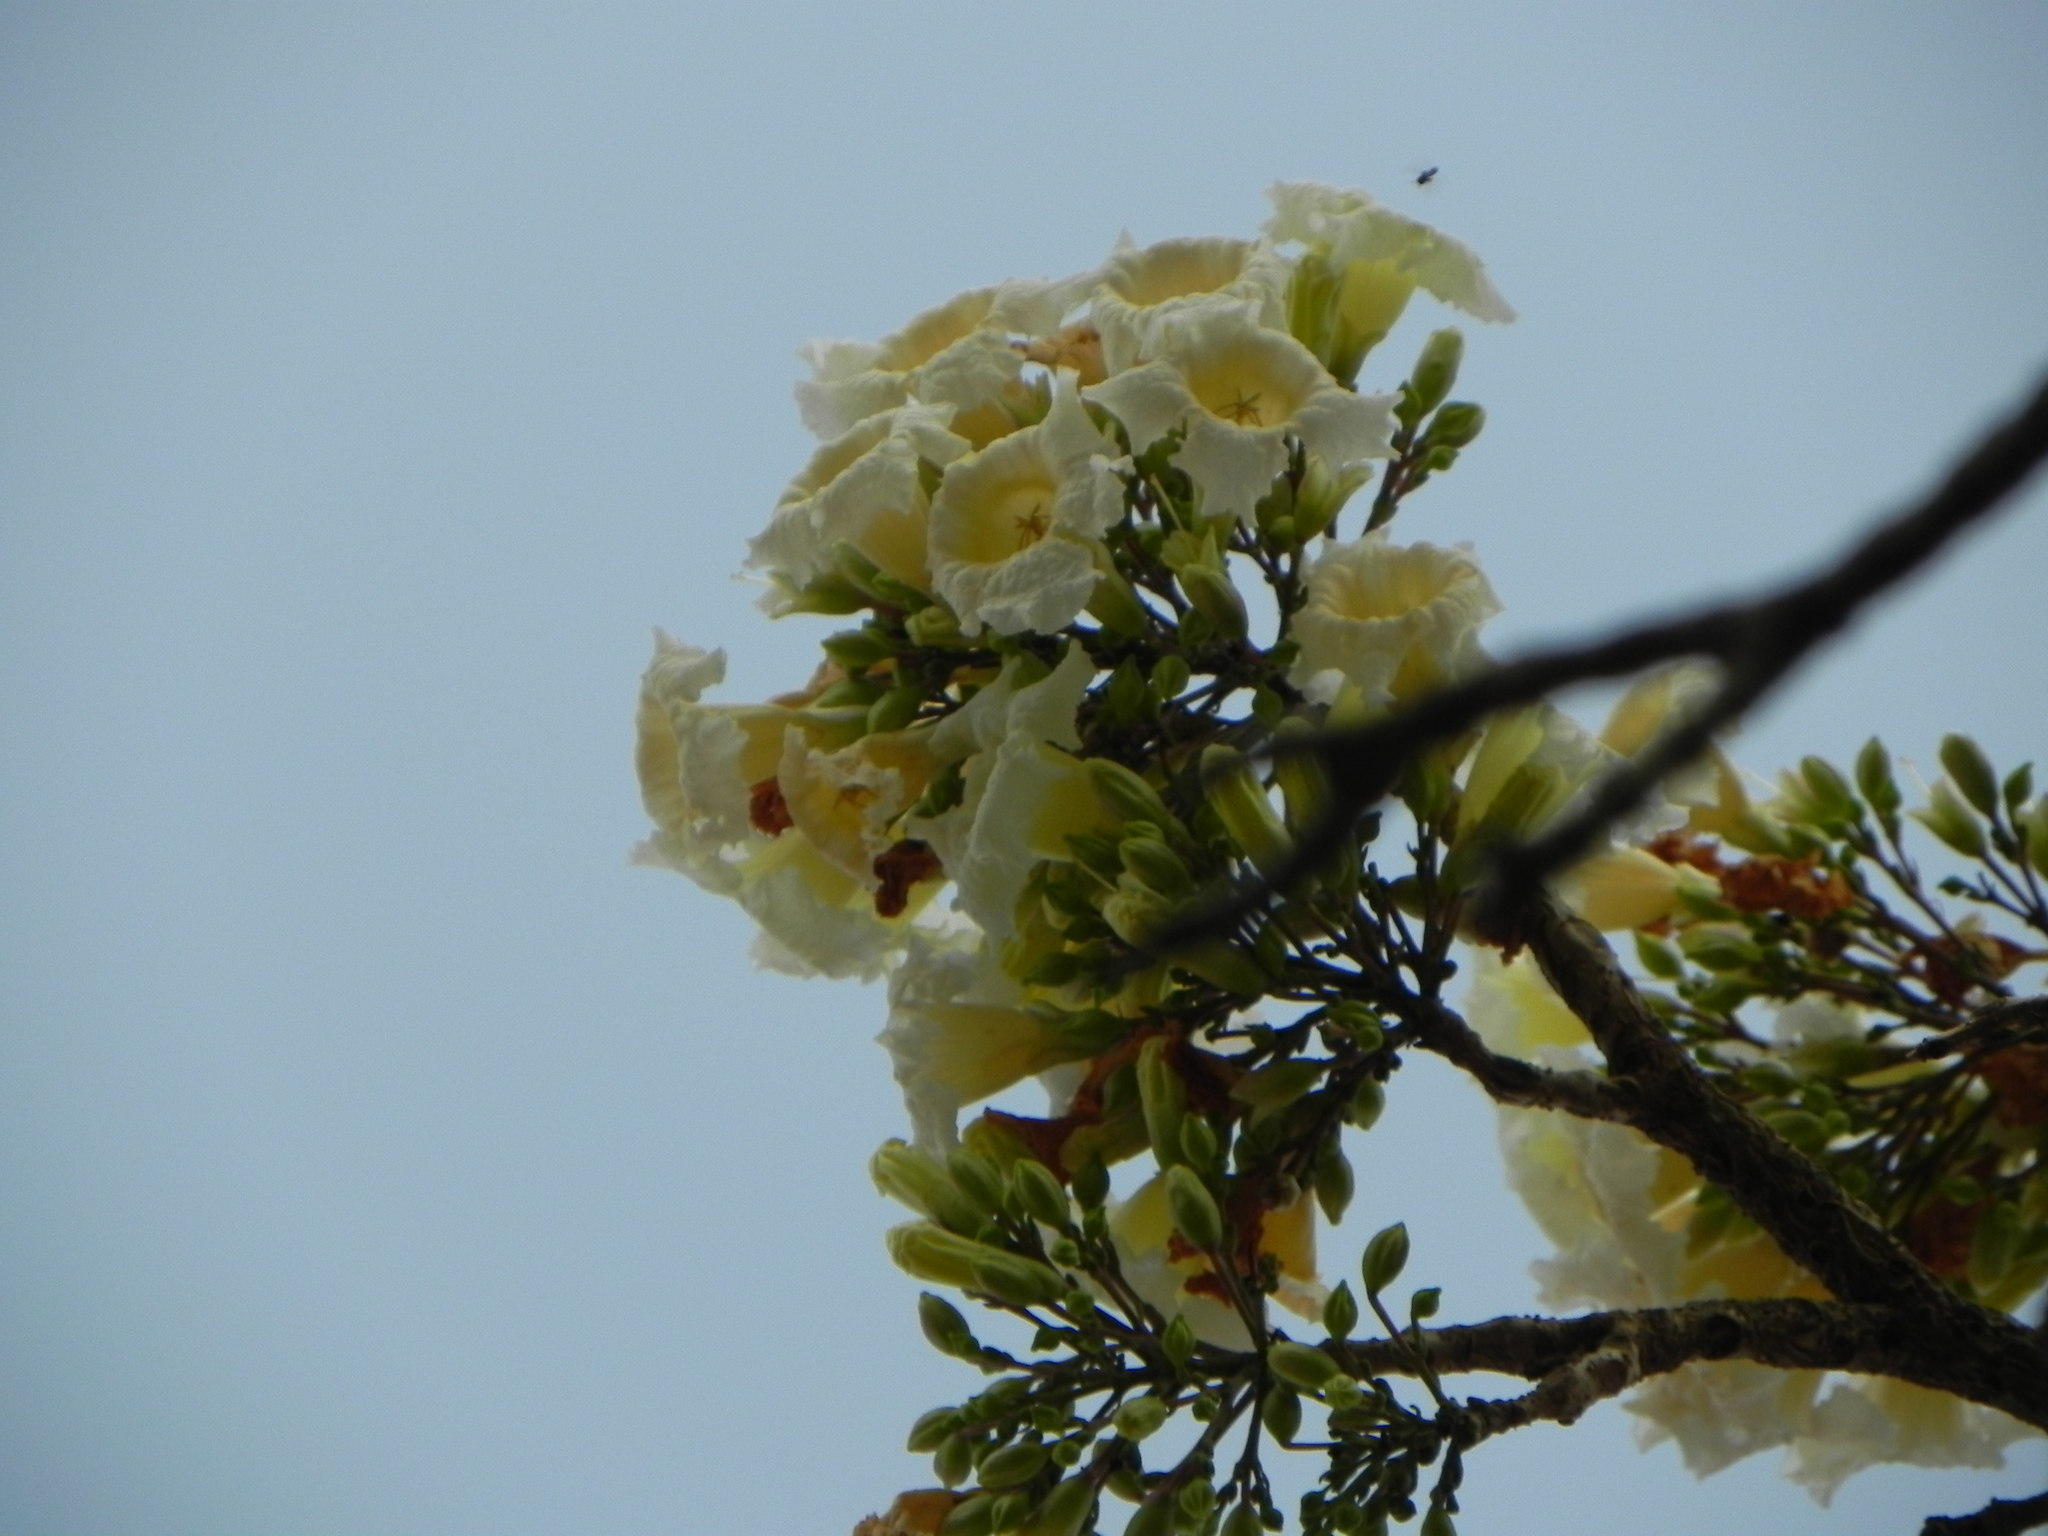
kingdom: Plantae
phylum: Tracheophyta
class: Magnoliopsida
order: Lamiales
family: Bignoniaceae
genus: Radermachera
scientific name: Radermachera xylocarpa
